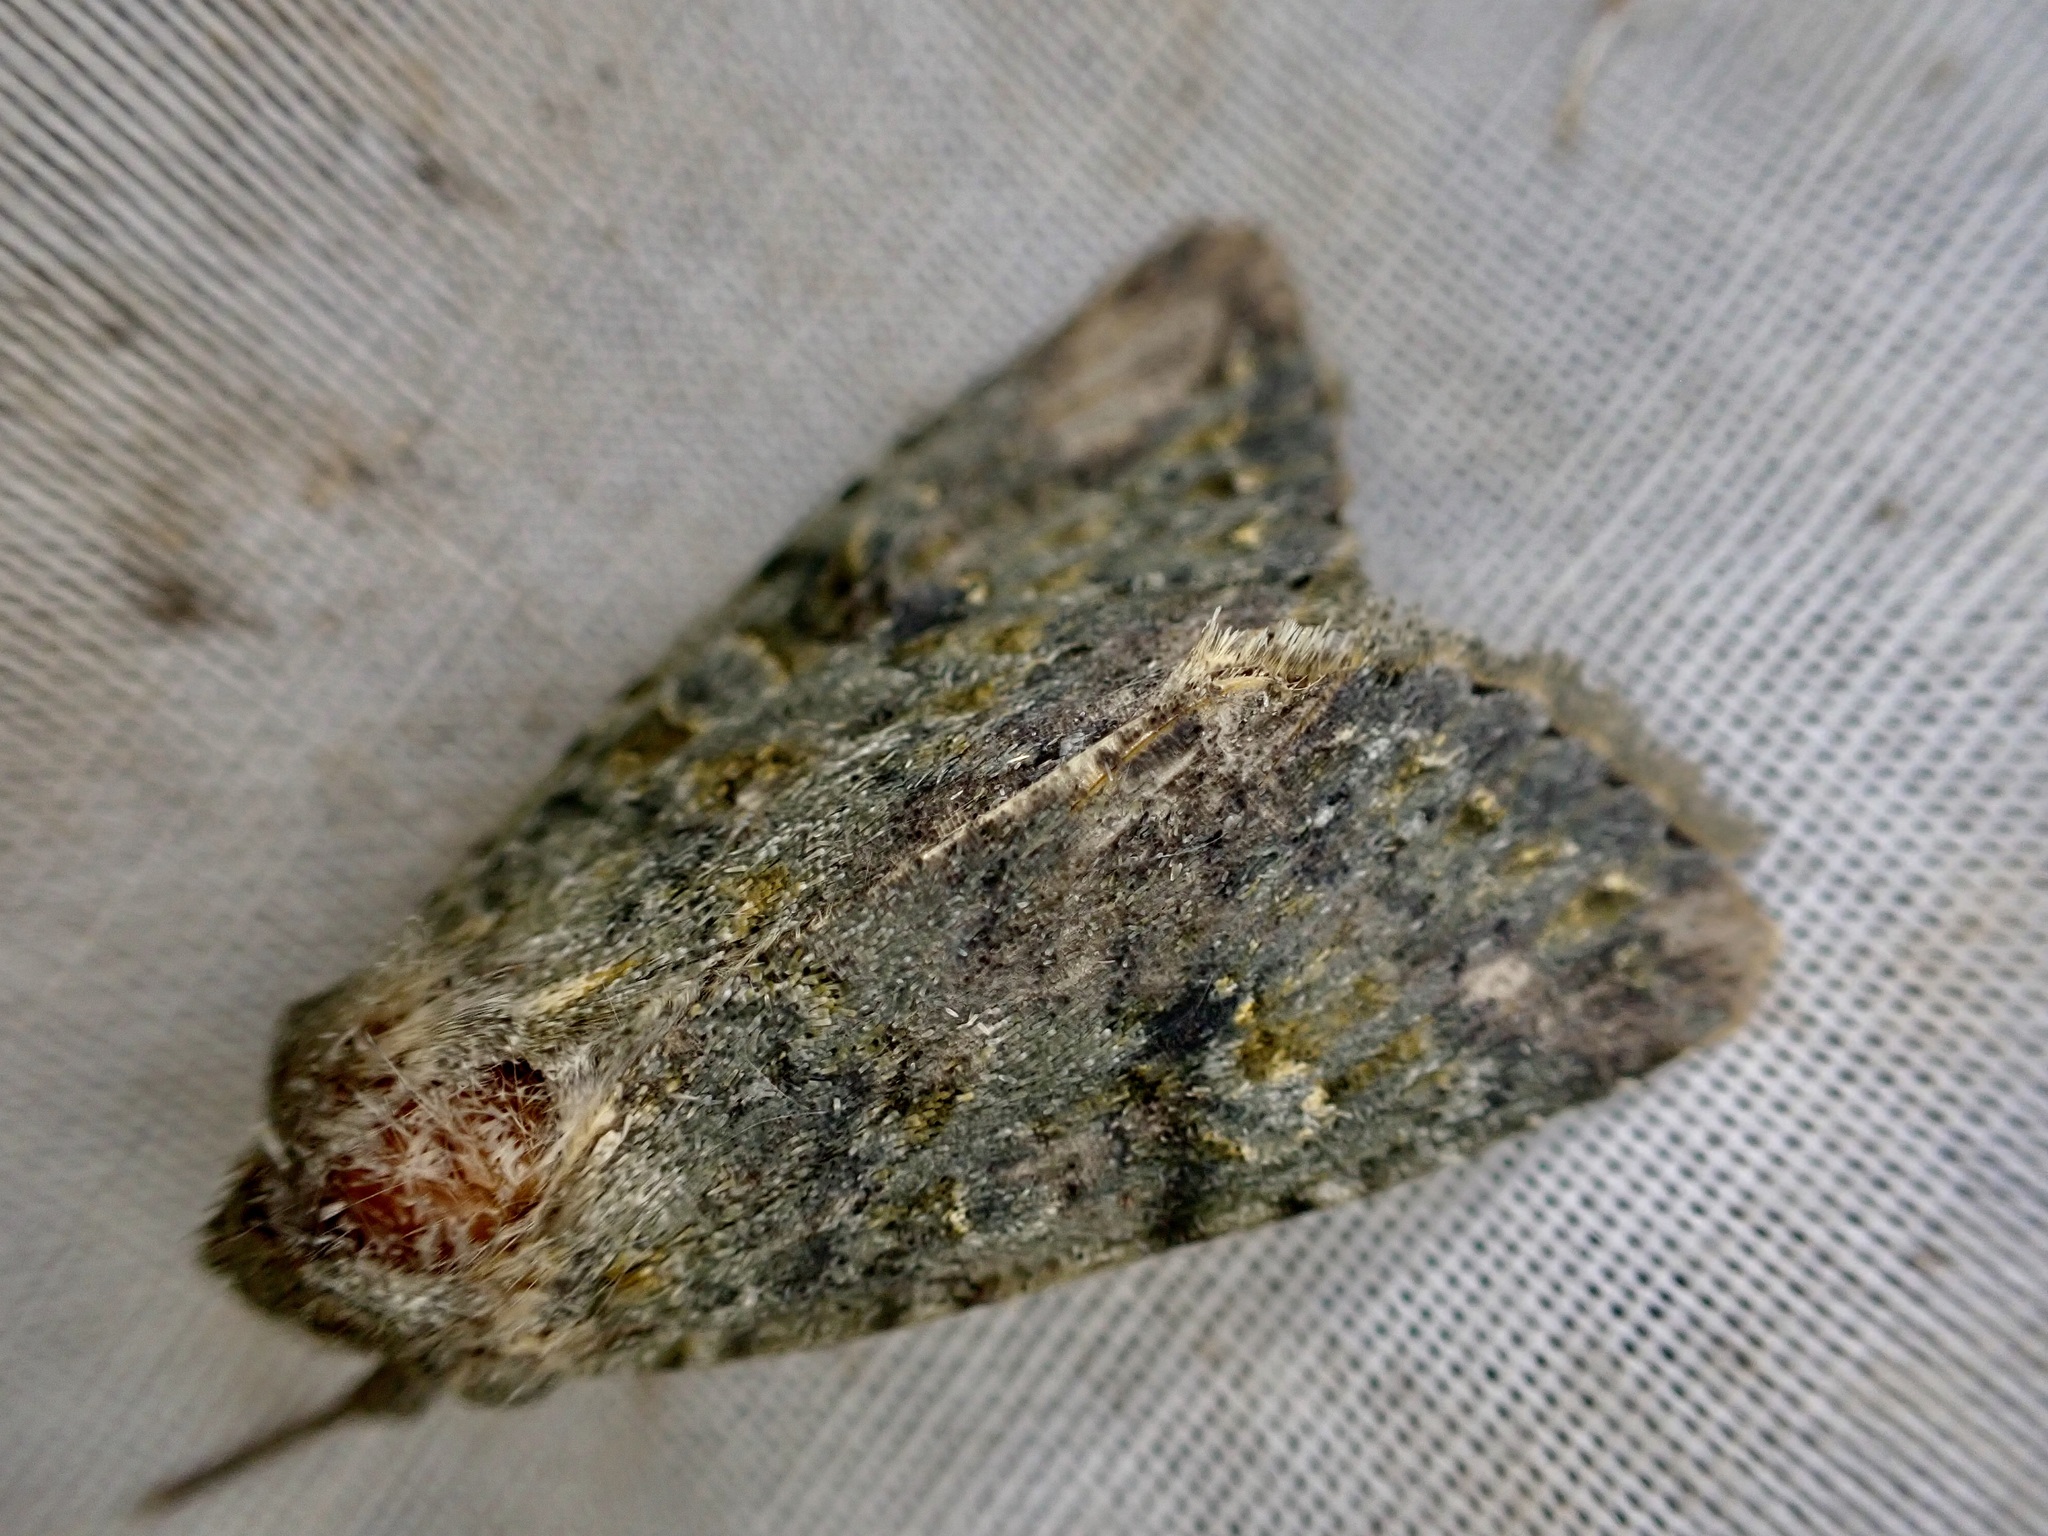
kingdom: Animalia
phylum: Arthropoda
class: Insecta
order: Lepidoptera
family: Noctuidae
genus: Ichneutica
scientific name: Ichneutica
